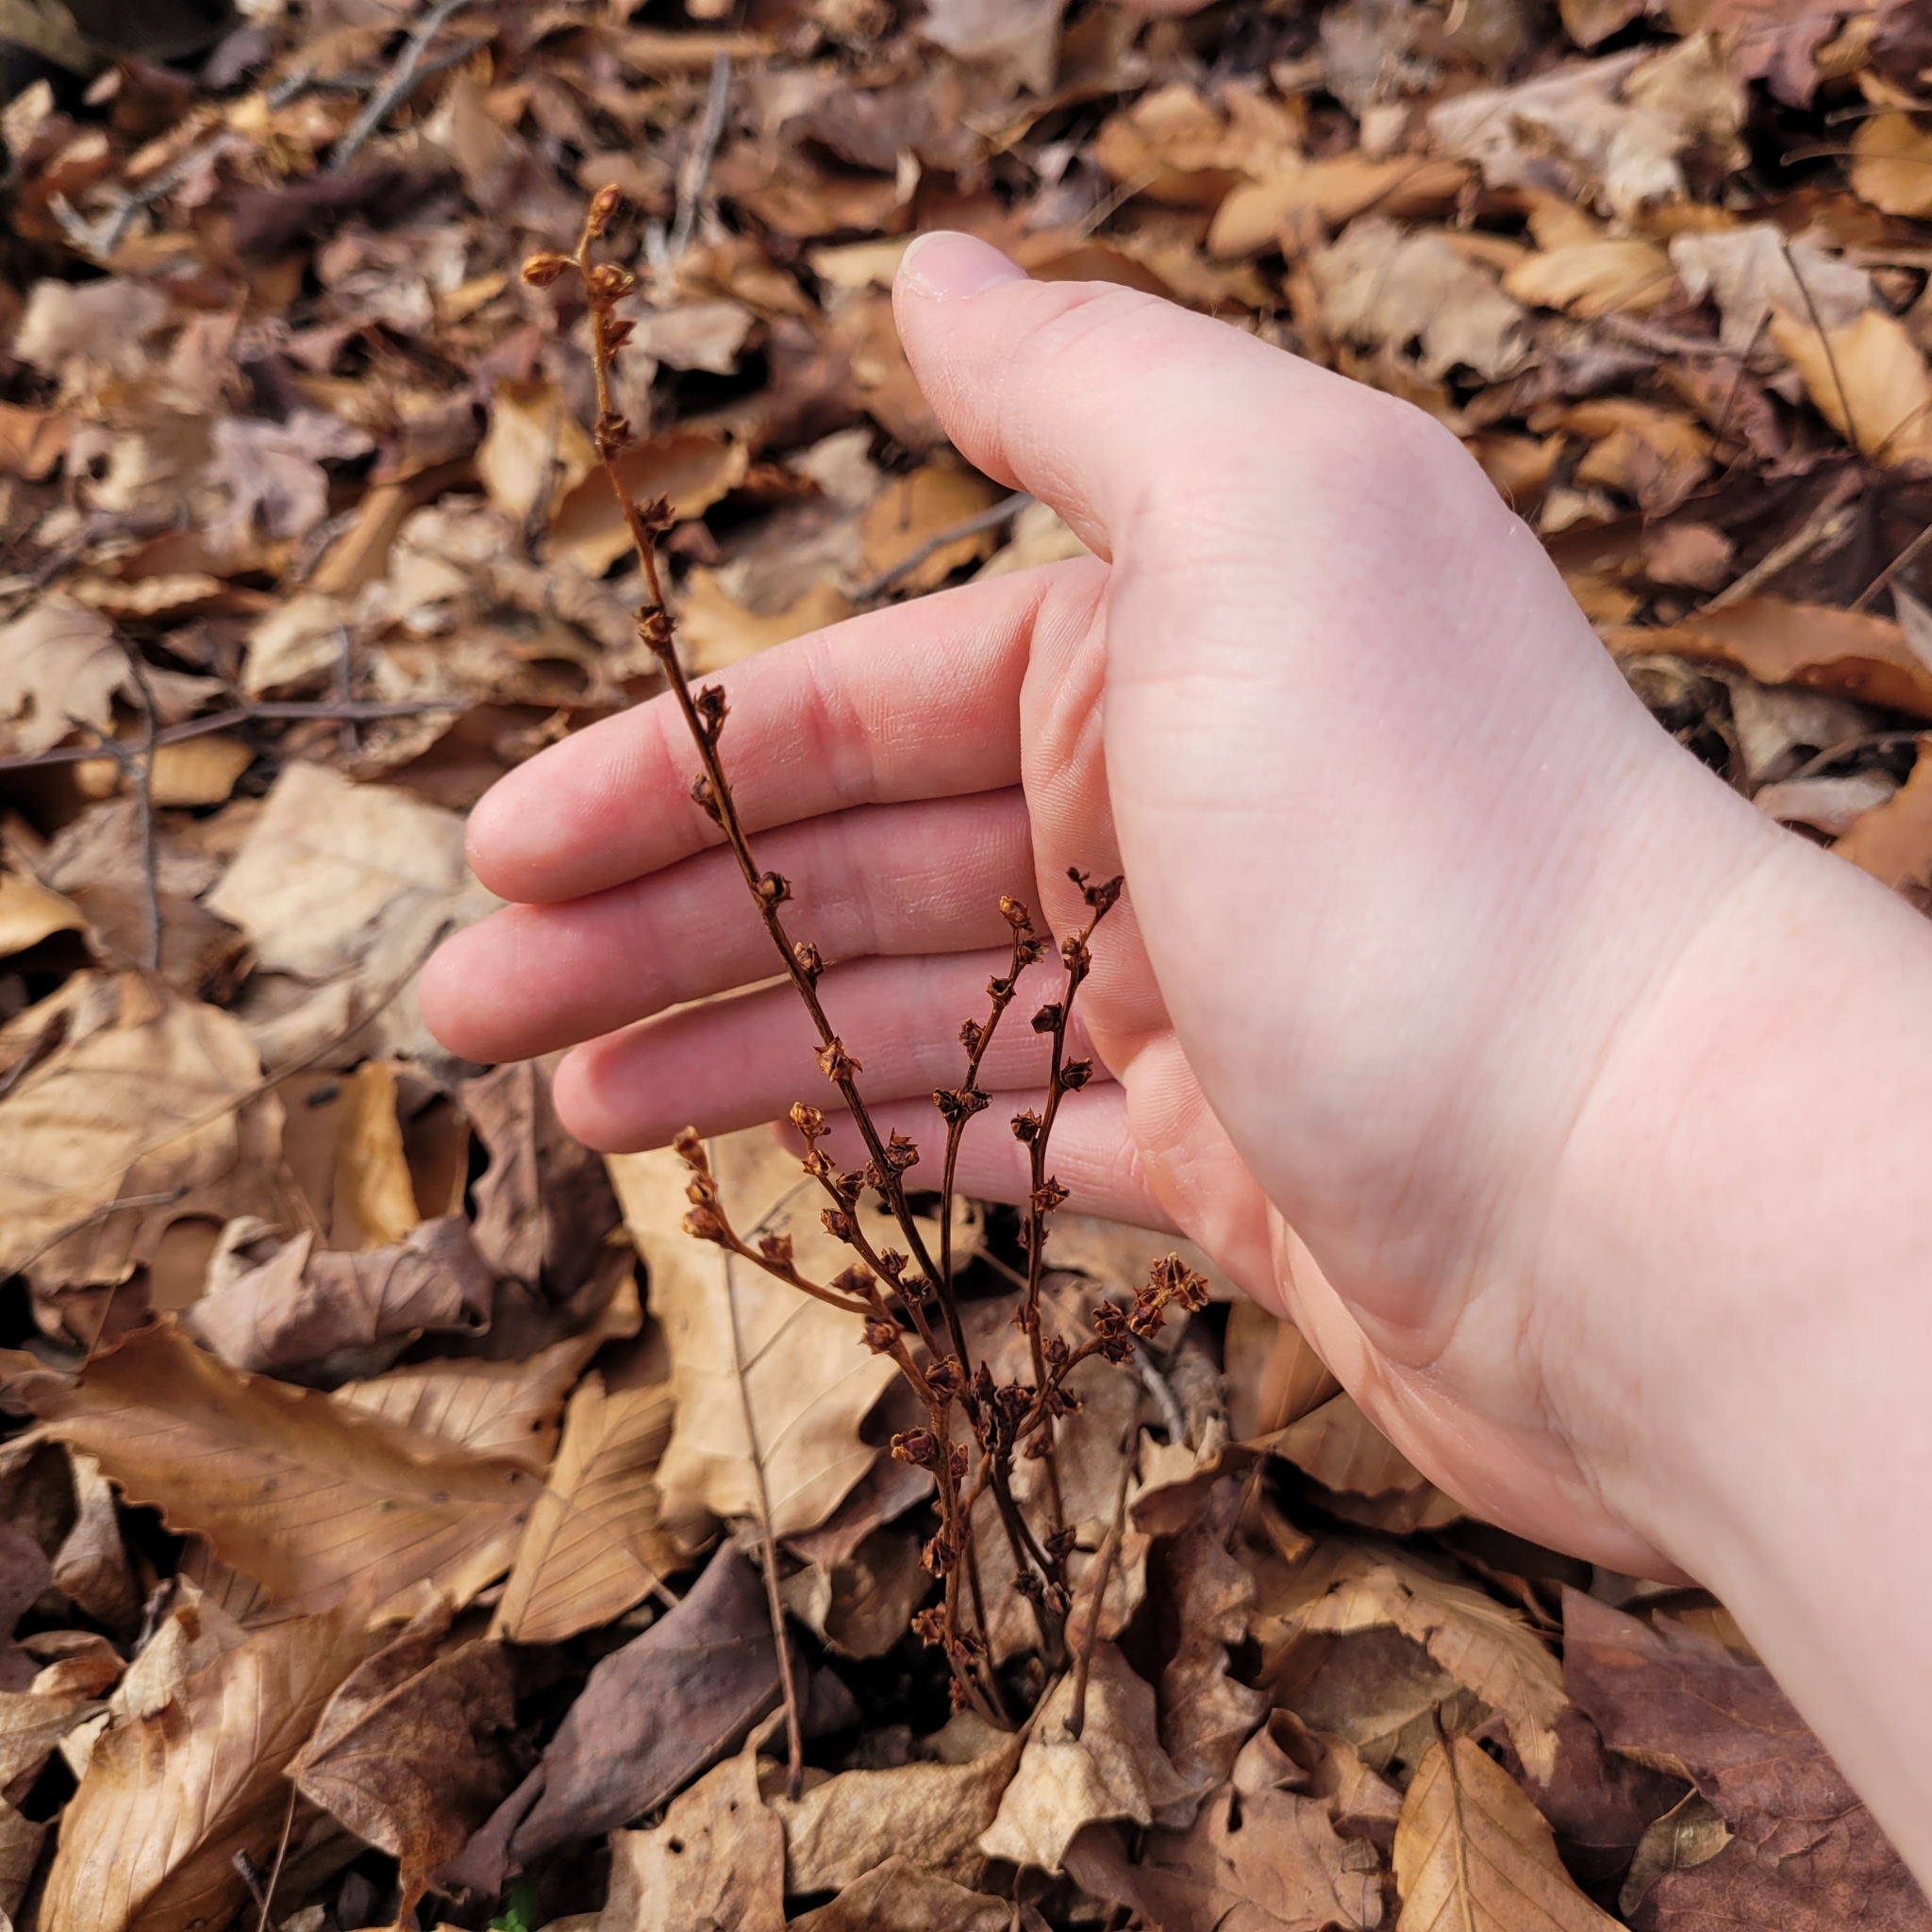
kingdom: Plantae
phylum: Tracheophyta
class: Magnoliopsida
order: Lamiales
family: Orobanchaceae
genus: Epifagus
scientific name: Epifagus virginiana
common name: Beechdrops
